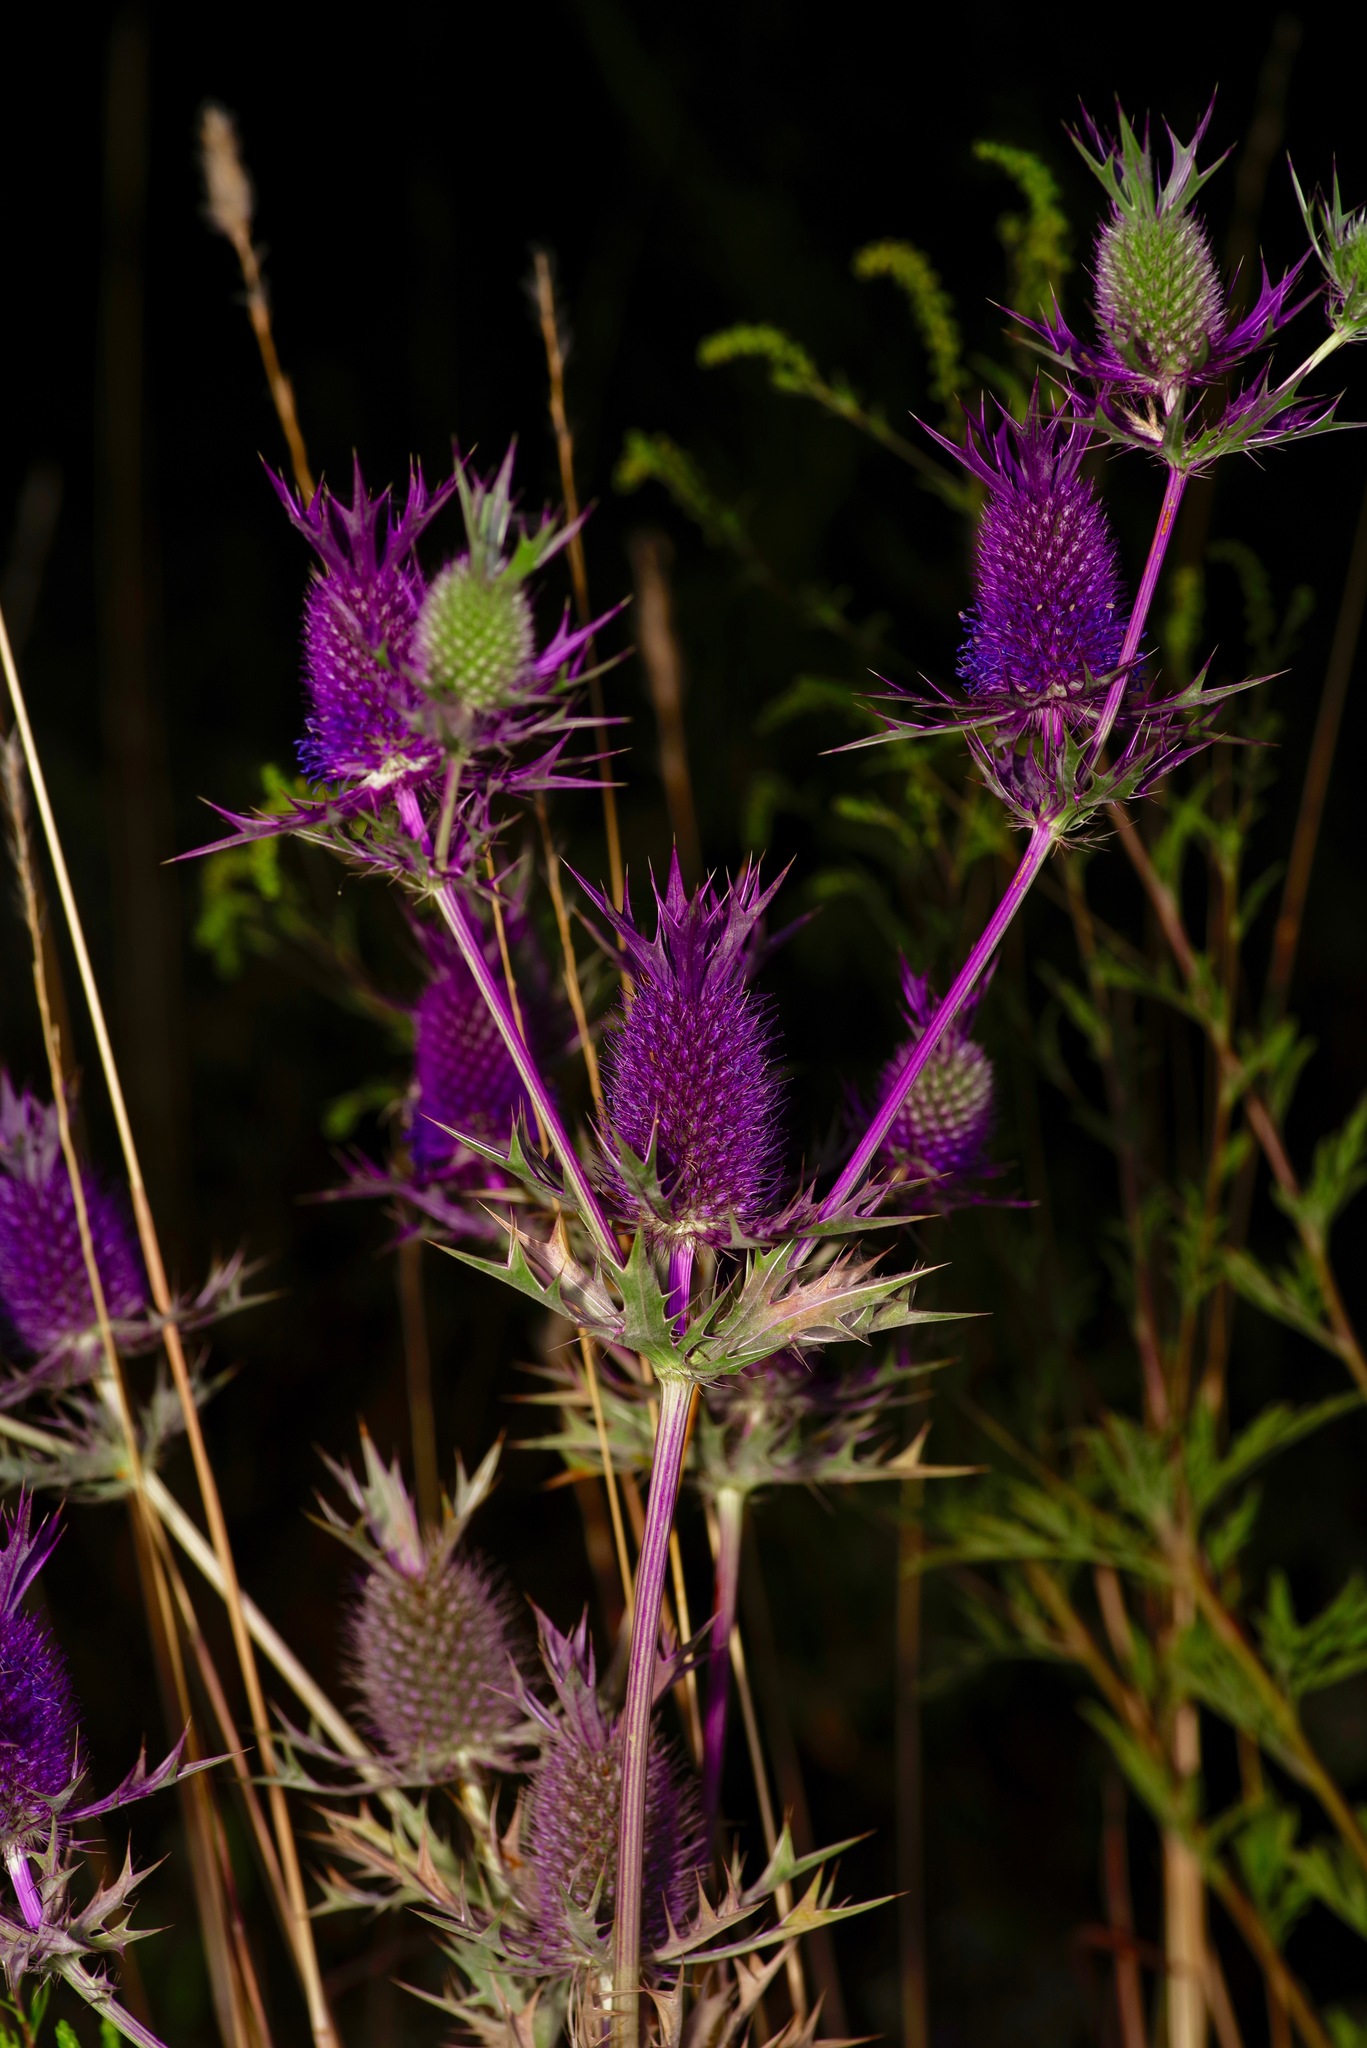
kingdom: Plantae
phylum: Tracheophyta
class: Magnoliopsida
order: Apiales
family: Apiaceae
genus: Eryngium
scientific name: Eryngium leavenworthii
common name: Leavenworth's eryngo
